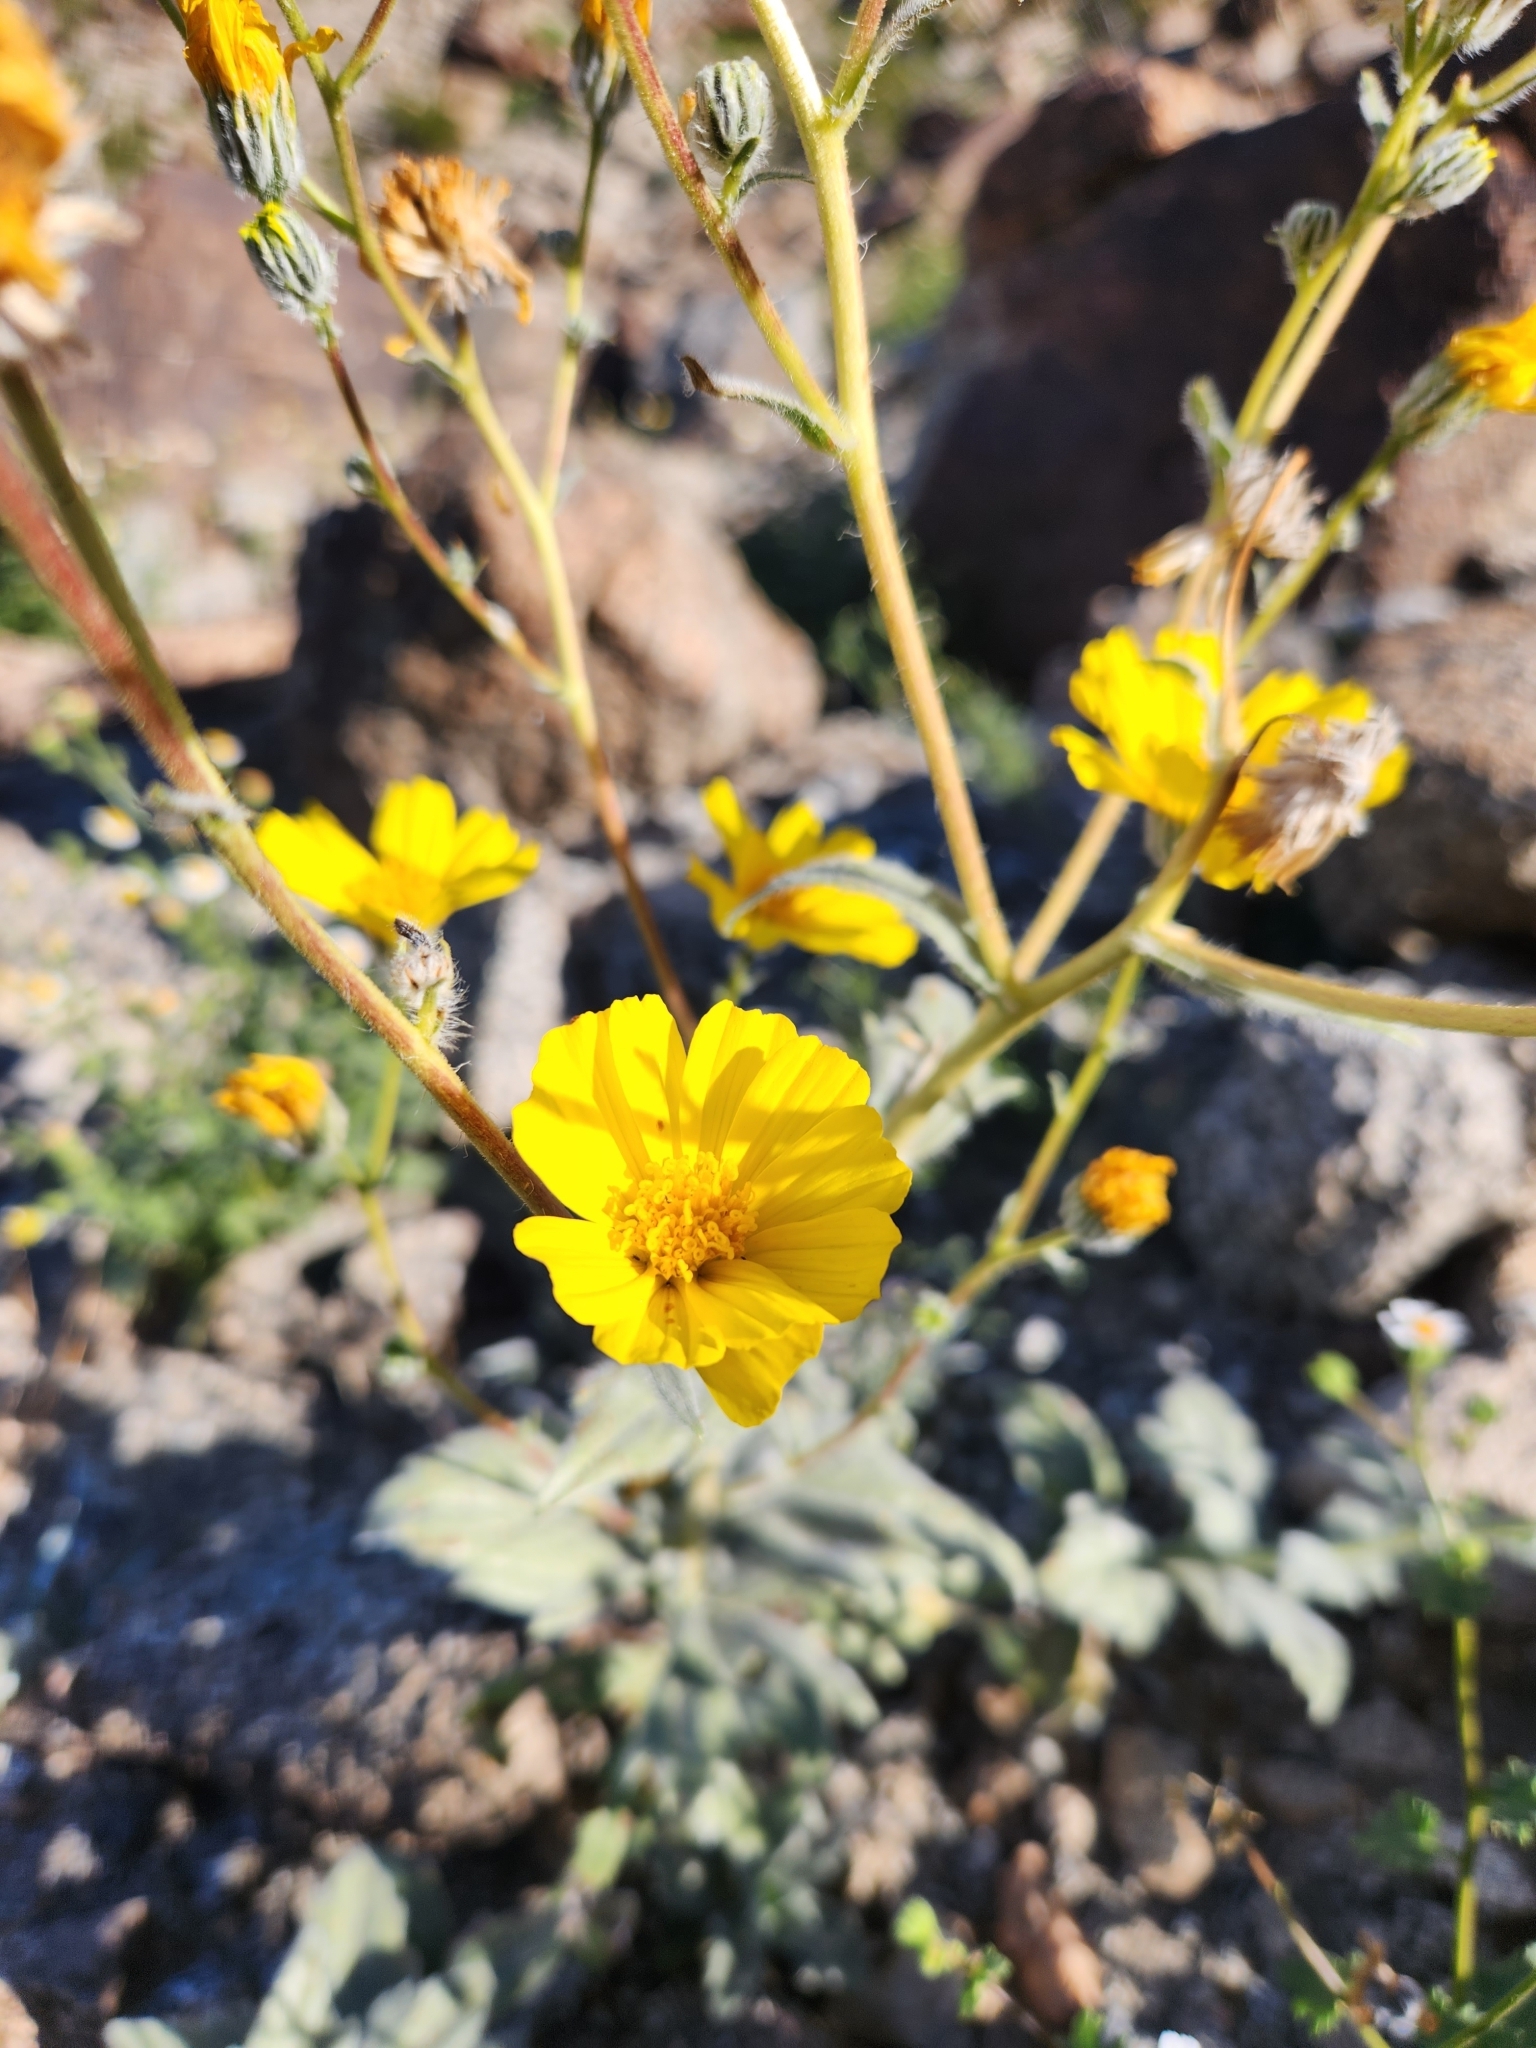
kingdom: Plantae
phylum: Tracheophyta
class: Magnoliopsida
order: Asterales
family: Asteraceae
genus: Geraea
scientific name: Geraea canescens
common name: Desert-gold
